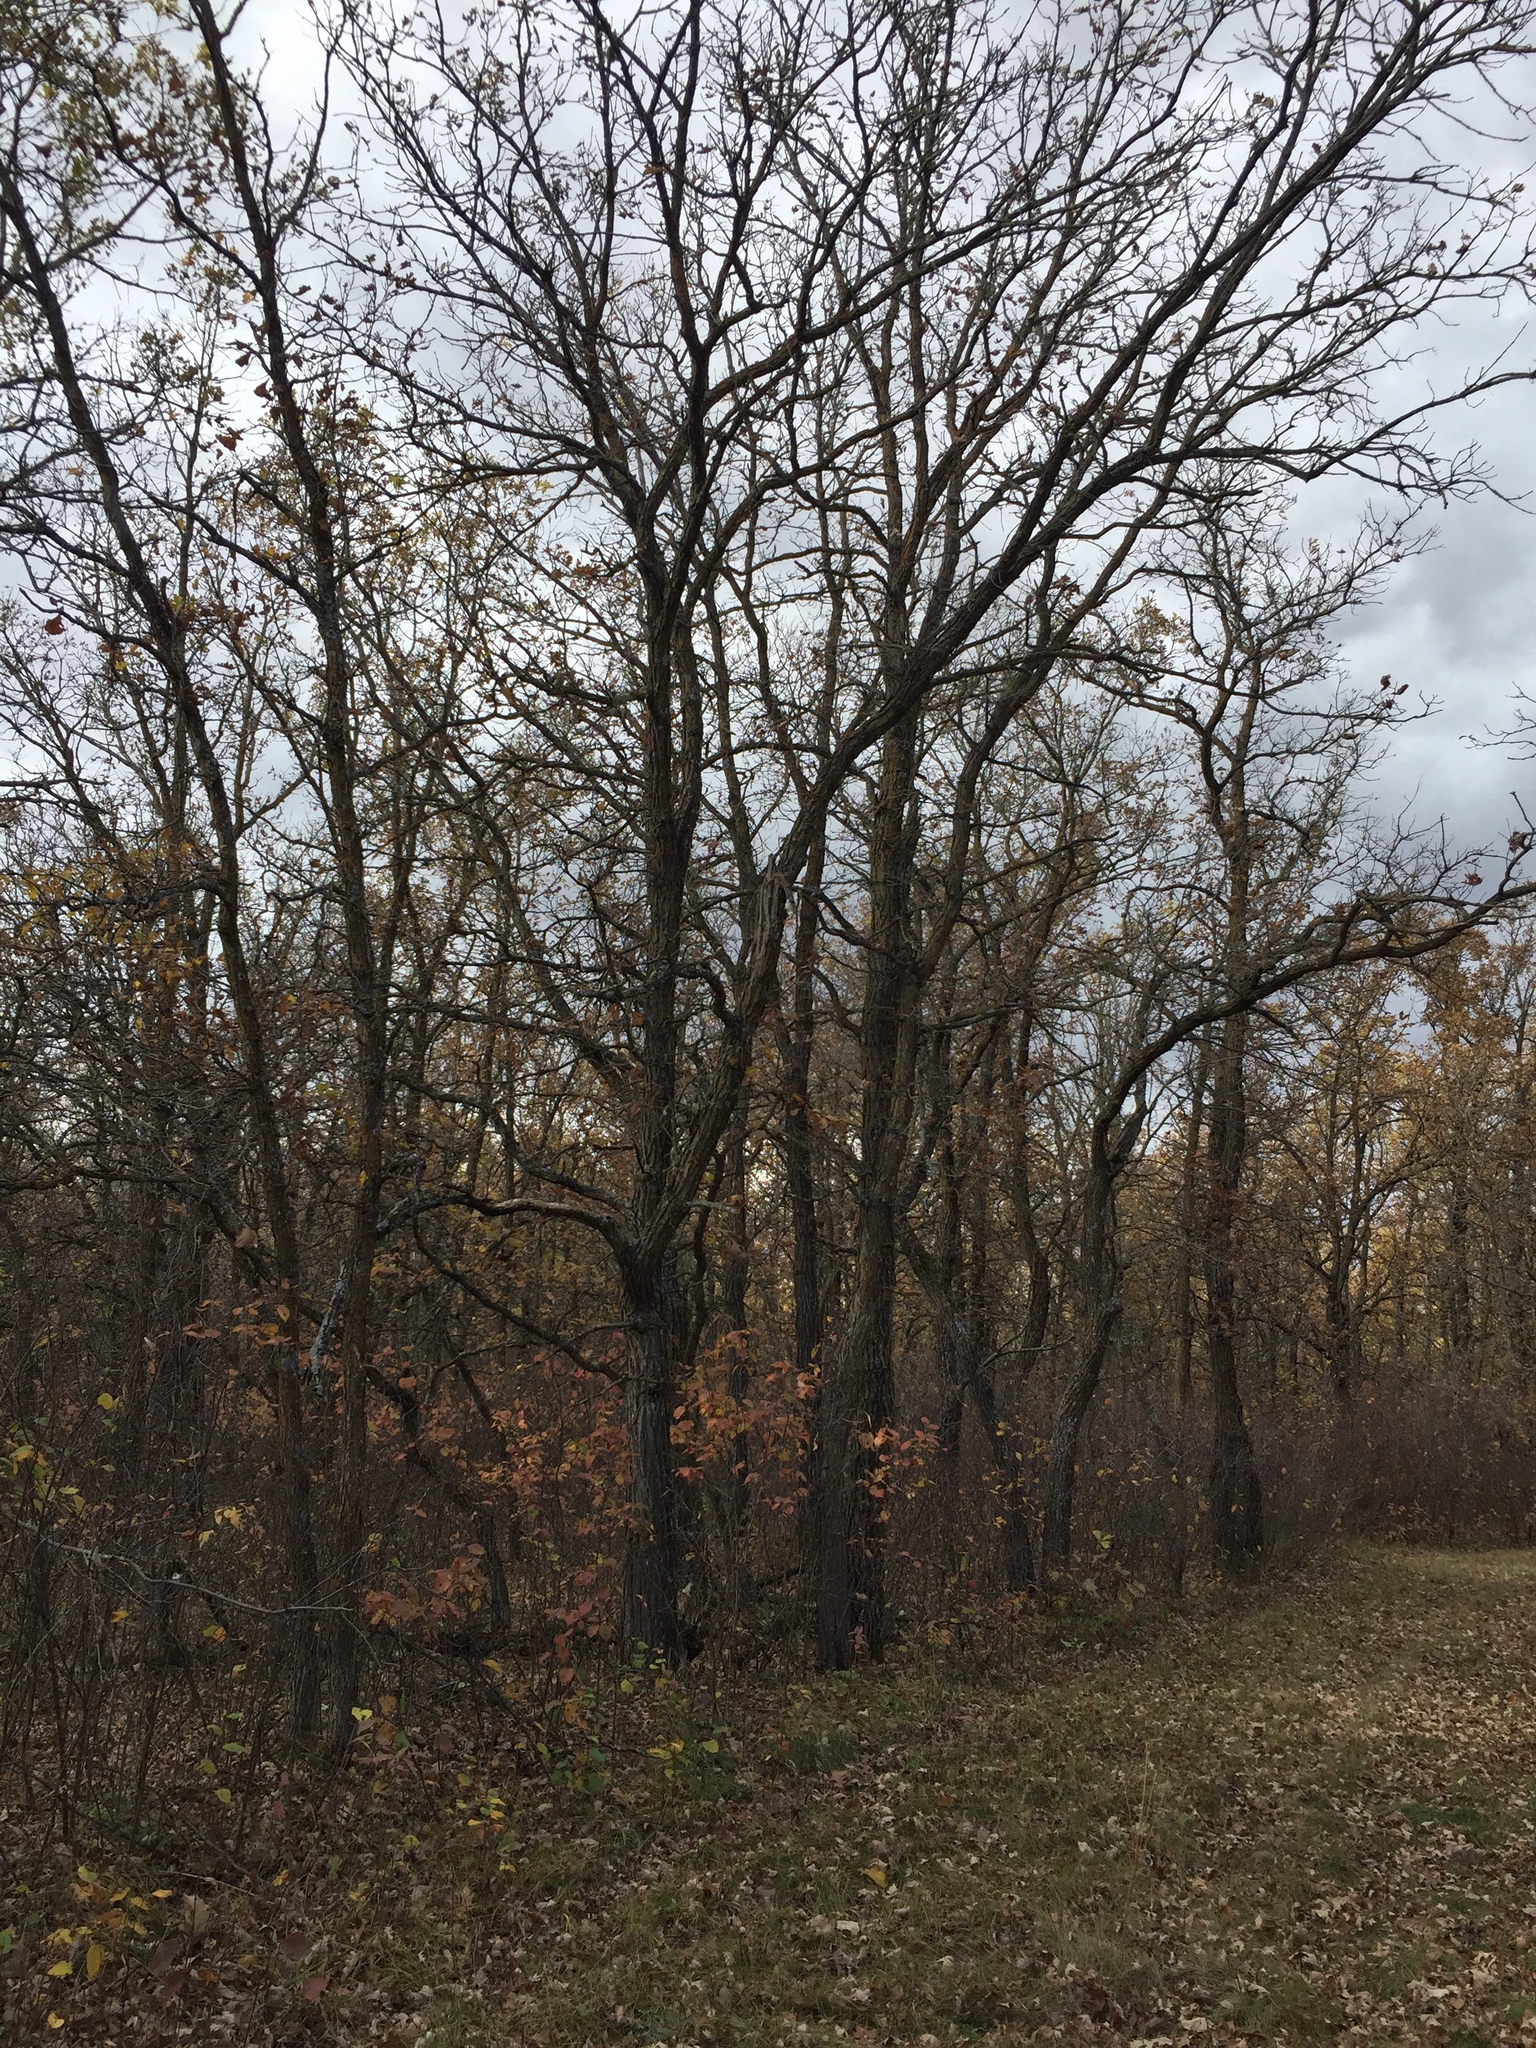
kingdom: Plantae
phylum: Tracheophyta
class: Magnoliopsida
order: Fagales
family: Fagaceae
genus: Quercus
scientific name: Quercus macrocarpa
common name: Bur oak
